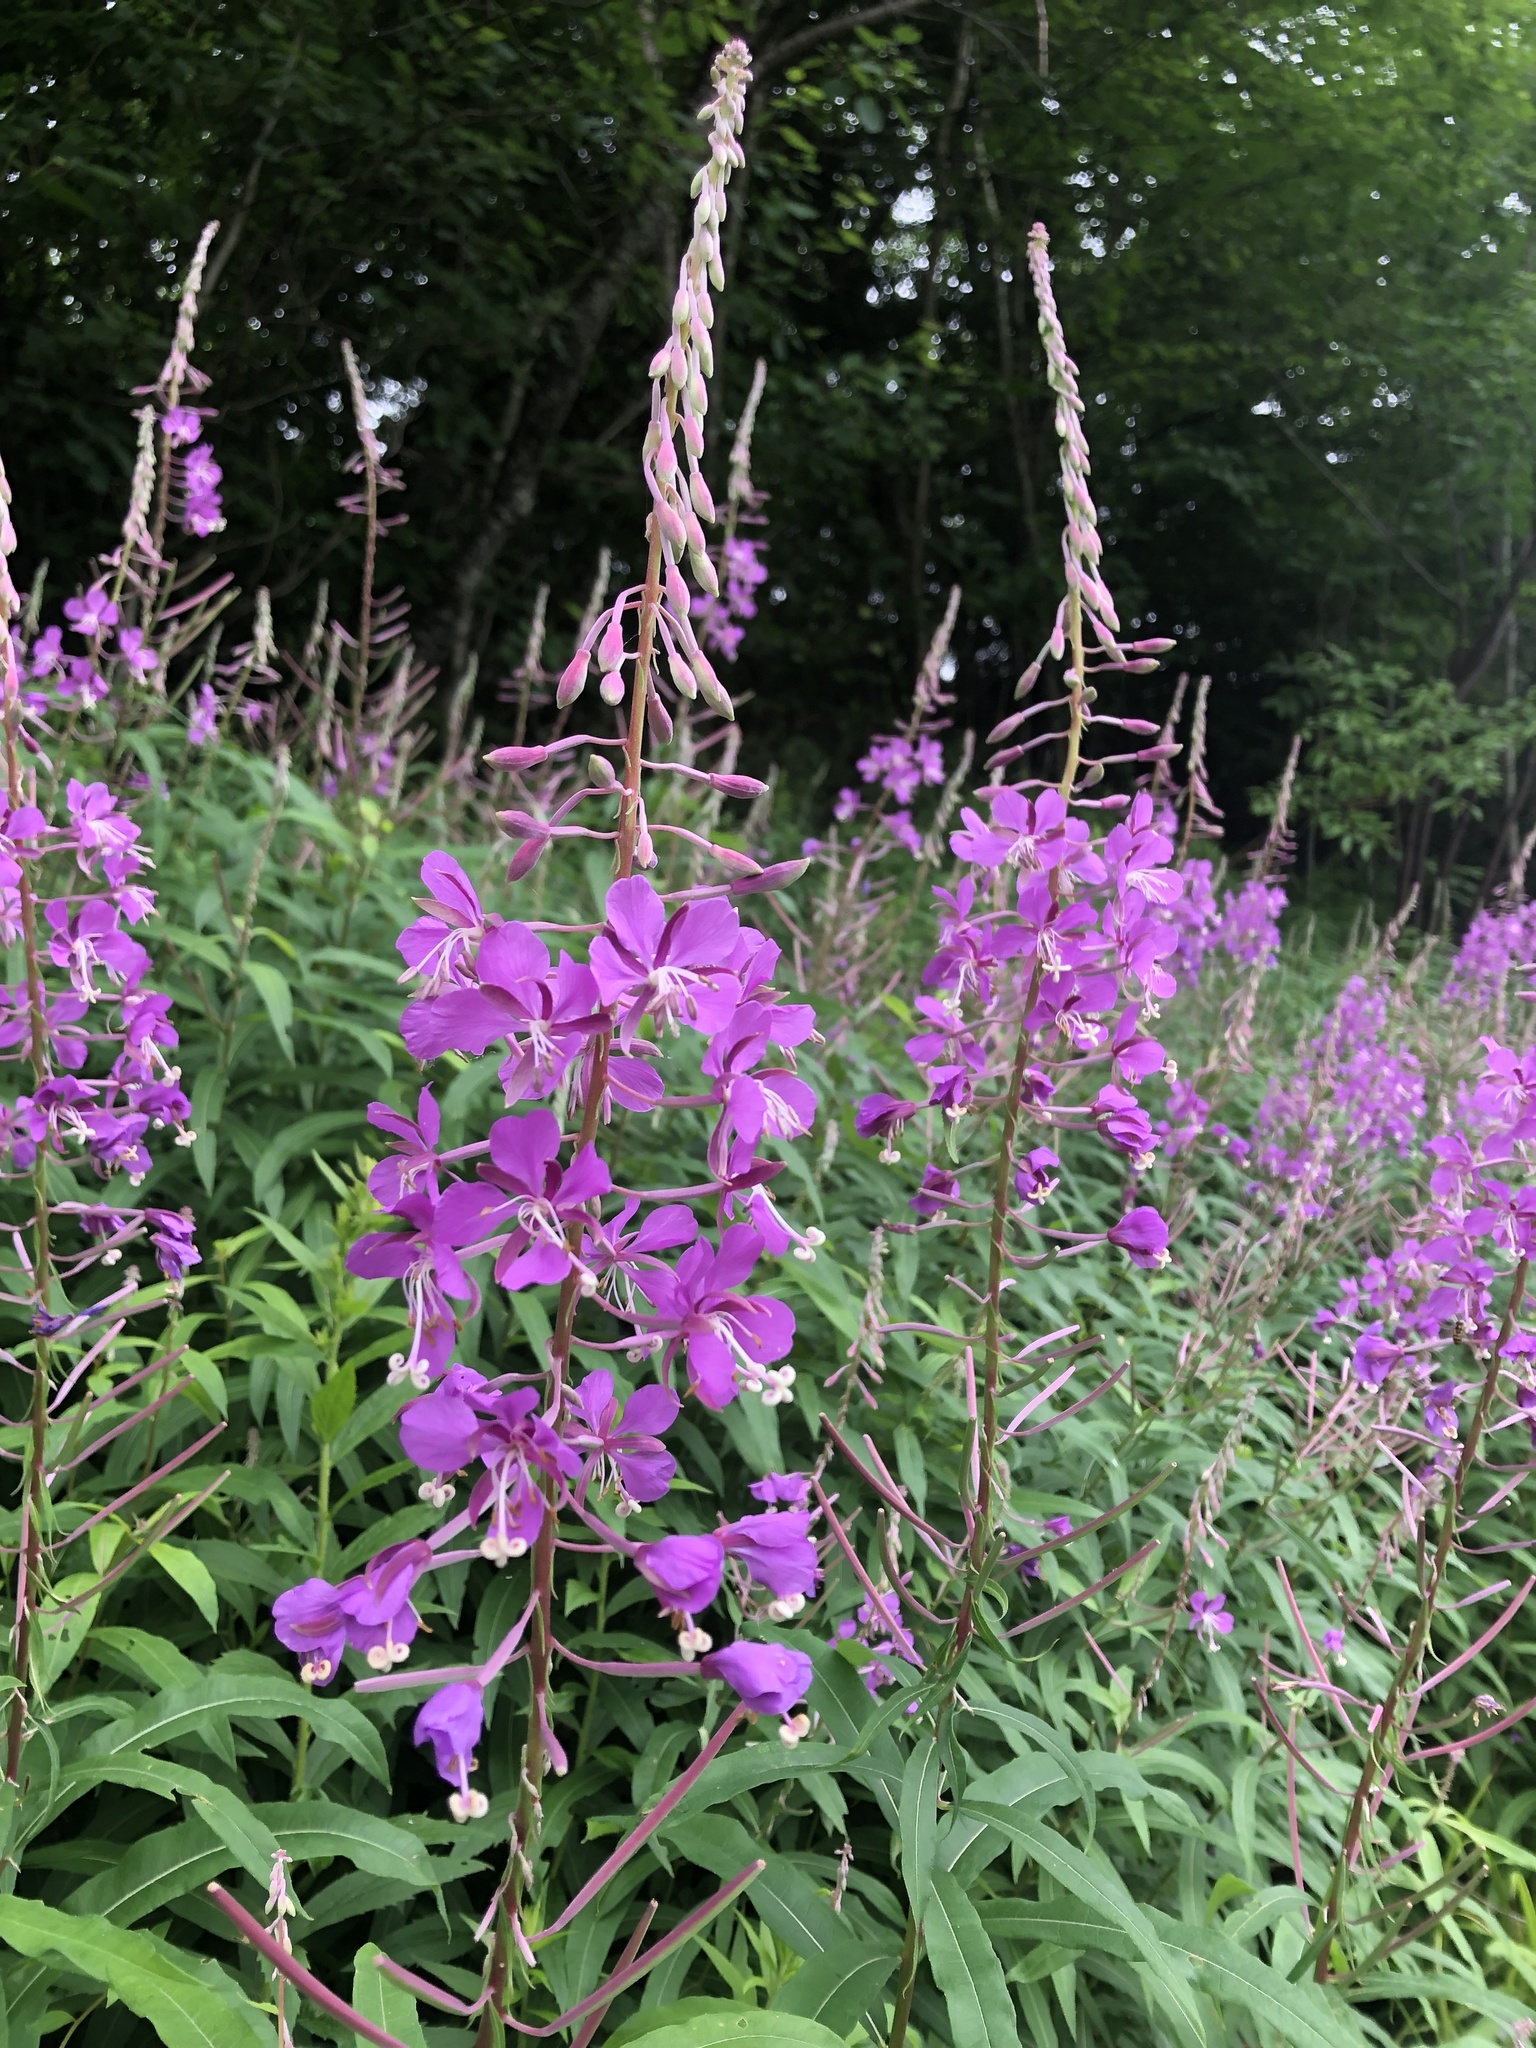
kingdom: Plantae
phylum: Tracheophyta
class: Magnoliopsida
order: Myrtales
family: Onagraceae
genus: Chamaenerion
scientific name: Chamaenerion angustifolium
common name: Fireweed
